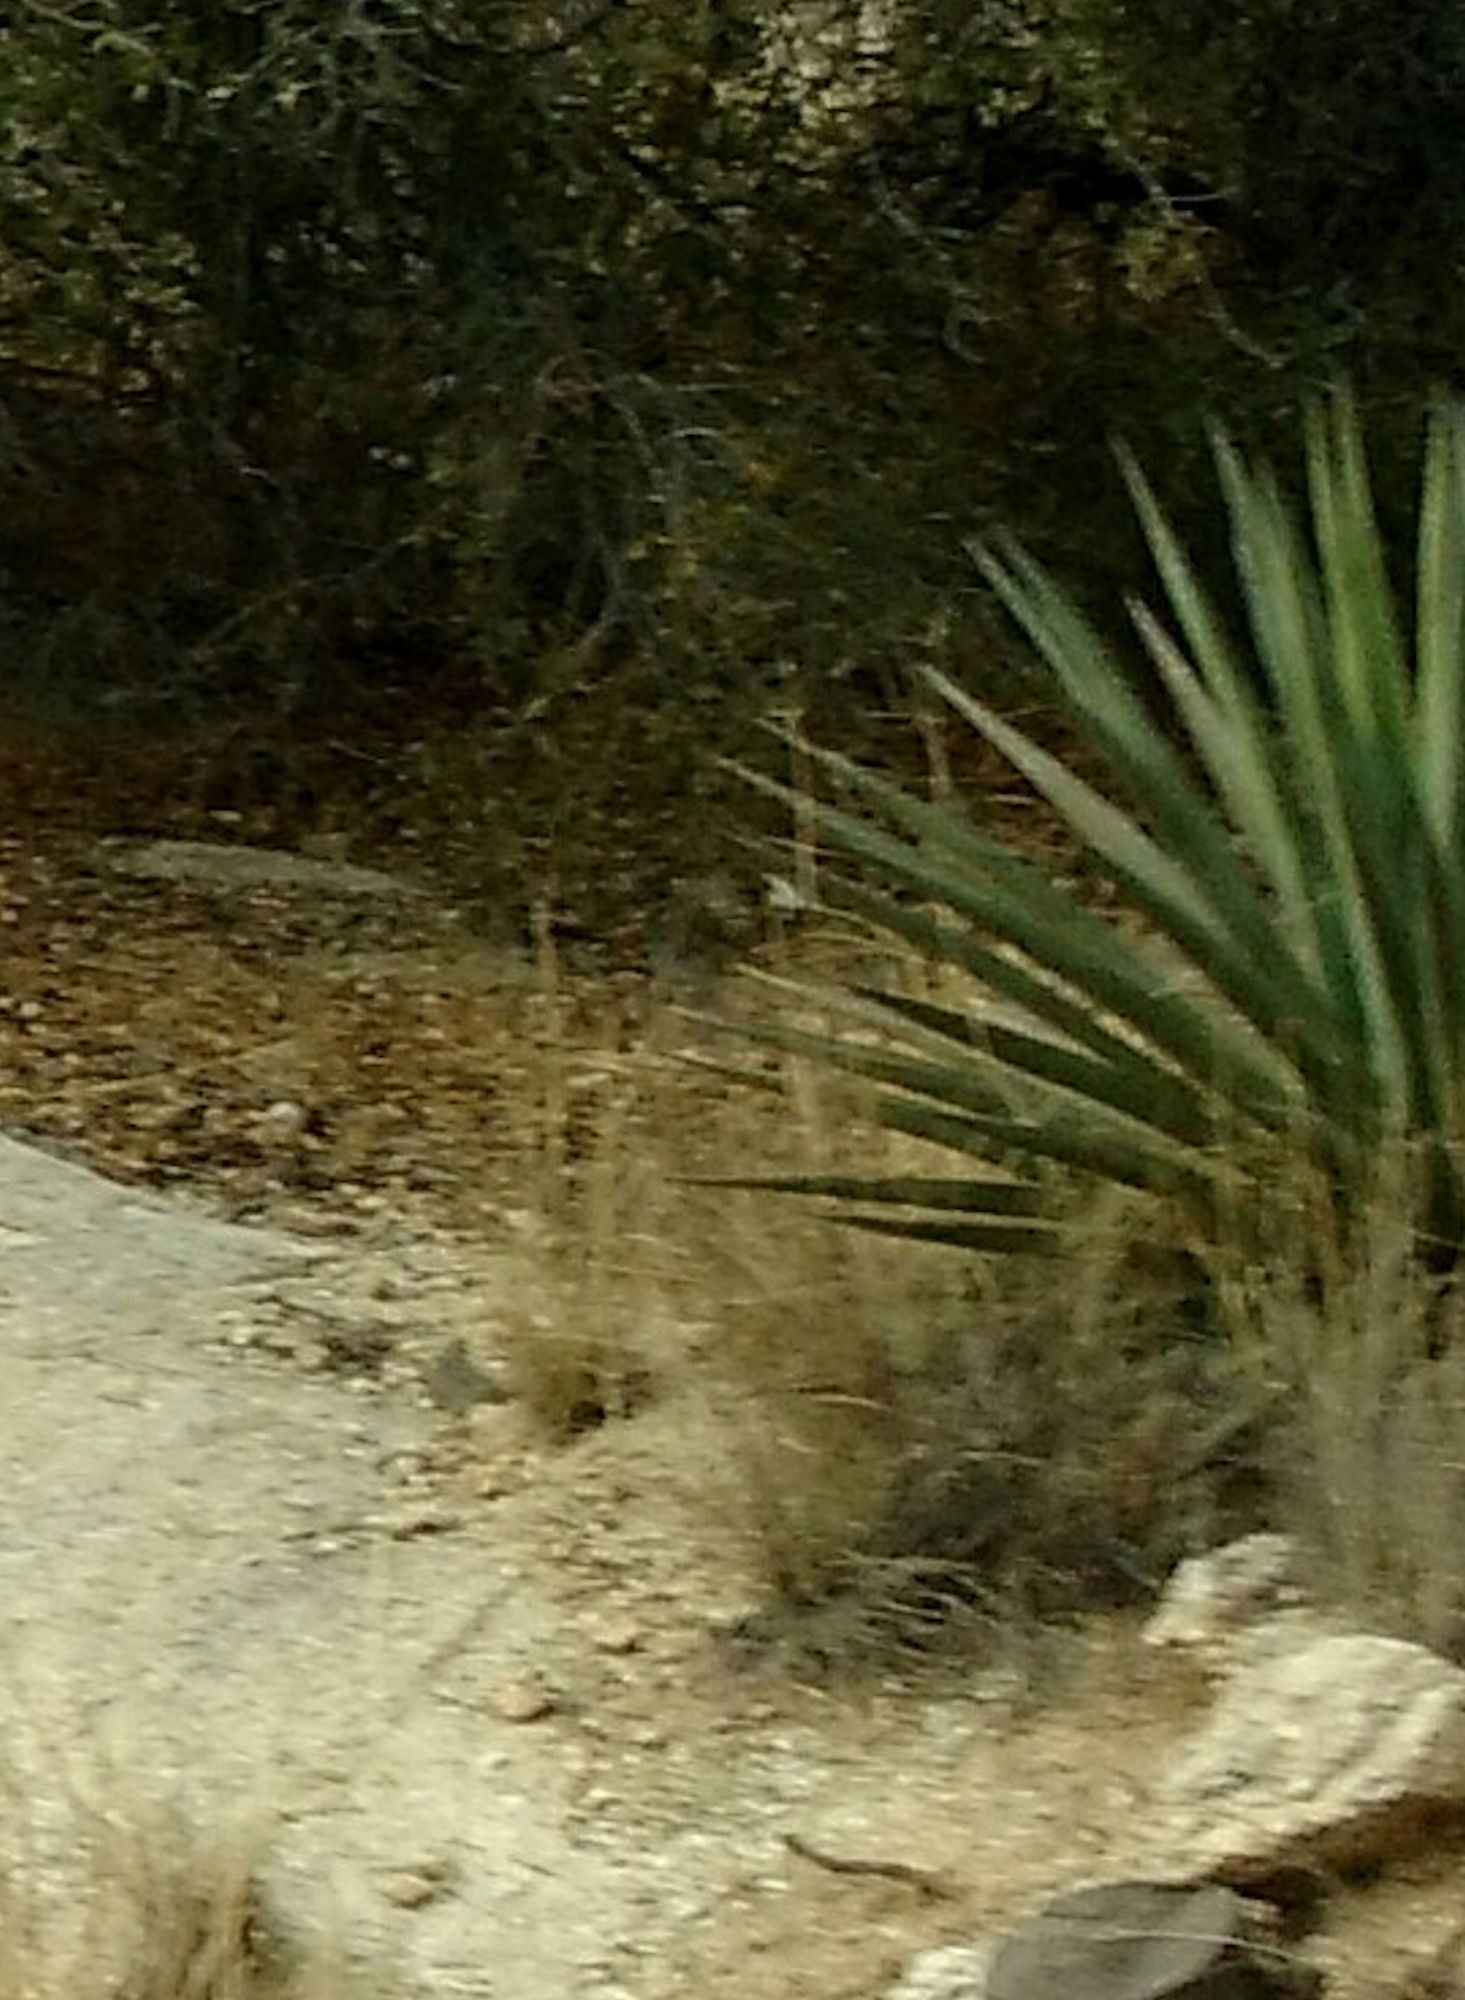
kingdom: Plantae
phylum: Tracheophyta
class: Liliopsida
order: Asparagales
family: Asparagaceae
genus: Agave
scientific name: Agave palmeri
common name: Palmer agave
